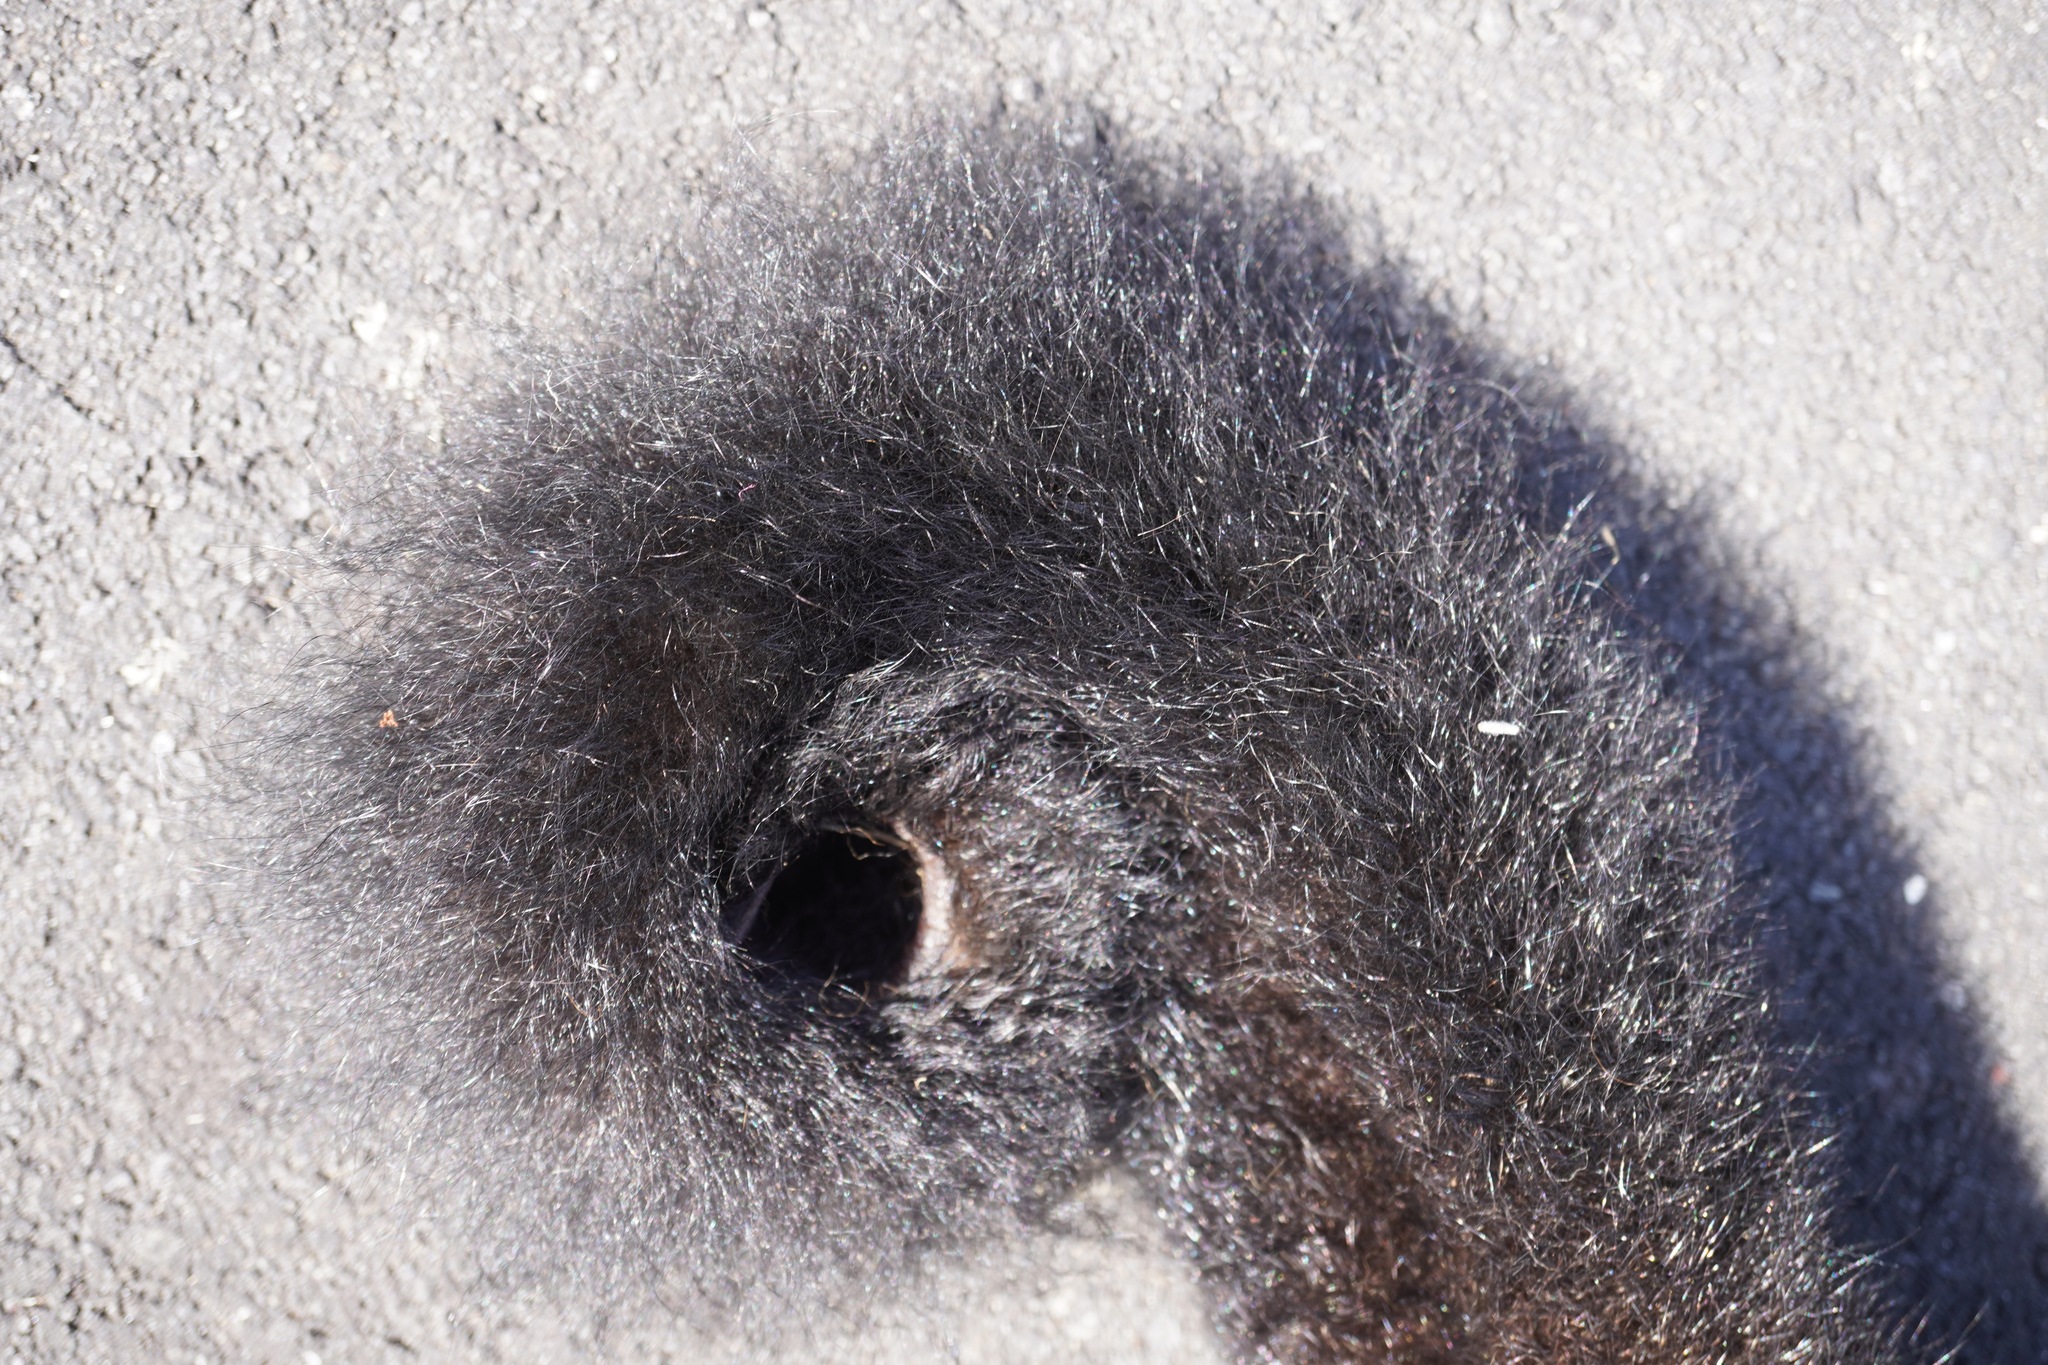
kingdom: Animalia
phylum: Chordata
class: Mammalia
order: Diprotodontia
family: Phalangeridae
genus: Trichosurus
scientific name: Trichosurus vulpecula
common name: Common brushtail
